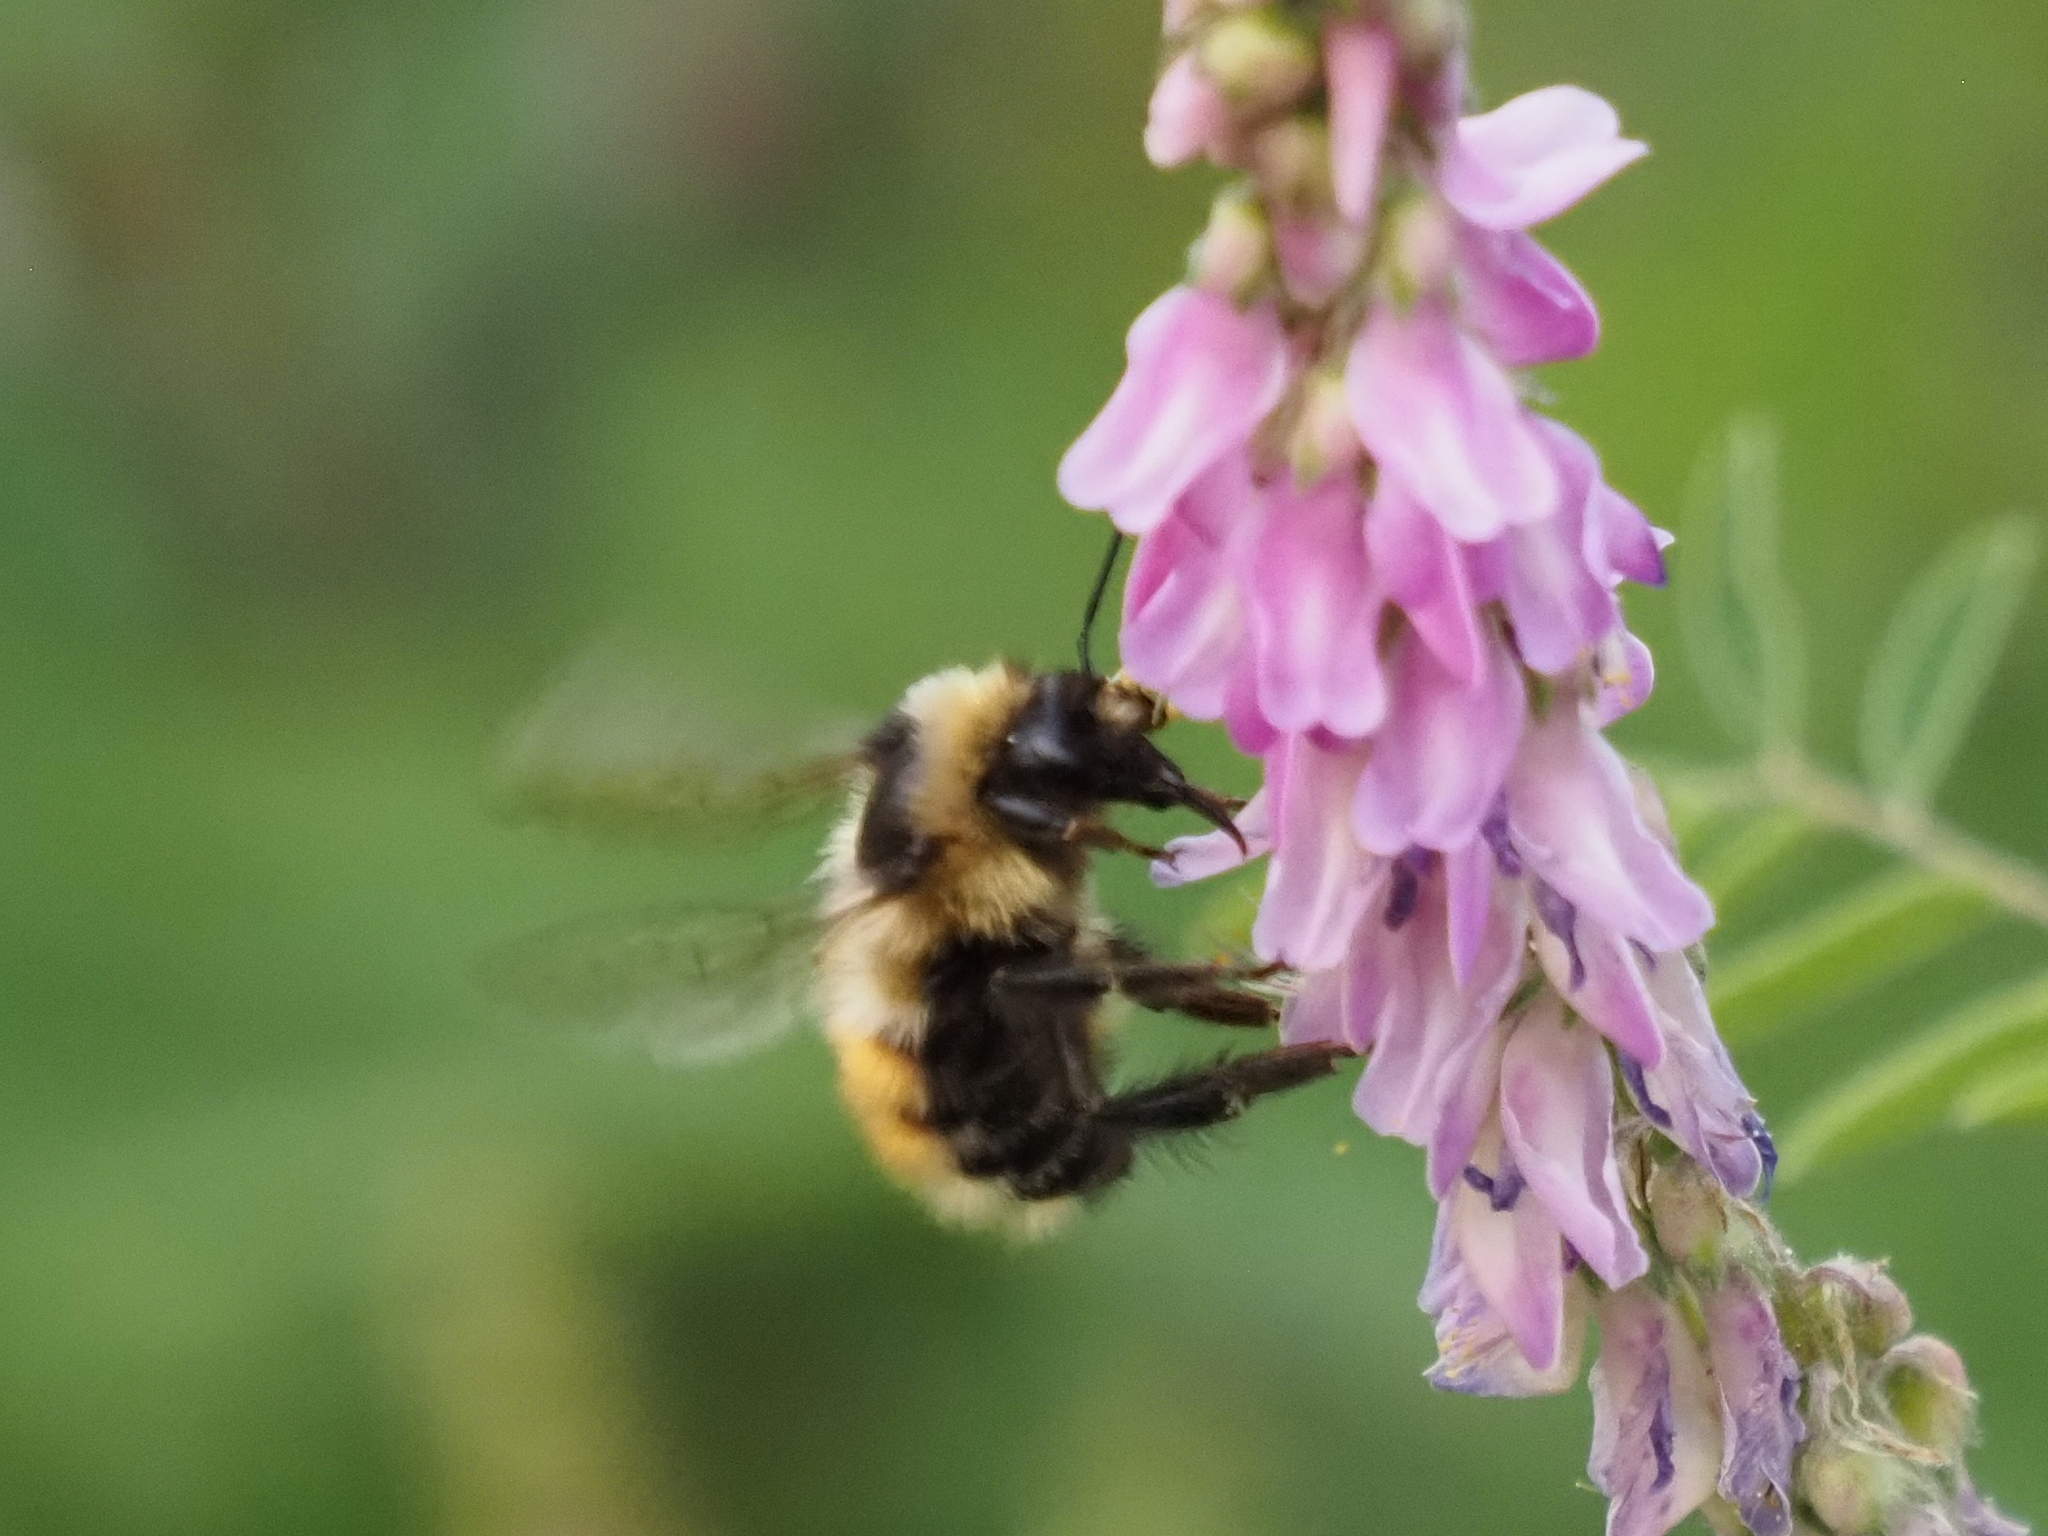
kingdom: Animalia
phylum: Arthropoda
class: Insecta
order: Hymenoptera
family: Apidae
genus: Bombus
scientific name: Bombus sylvicola
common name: Forest bumble bee
